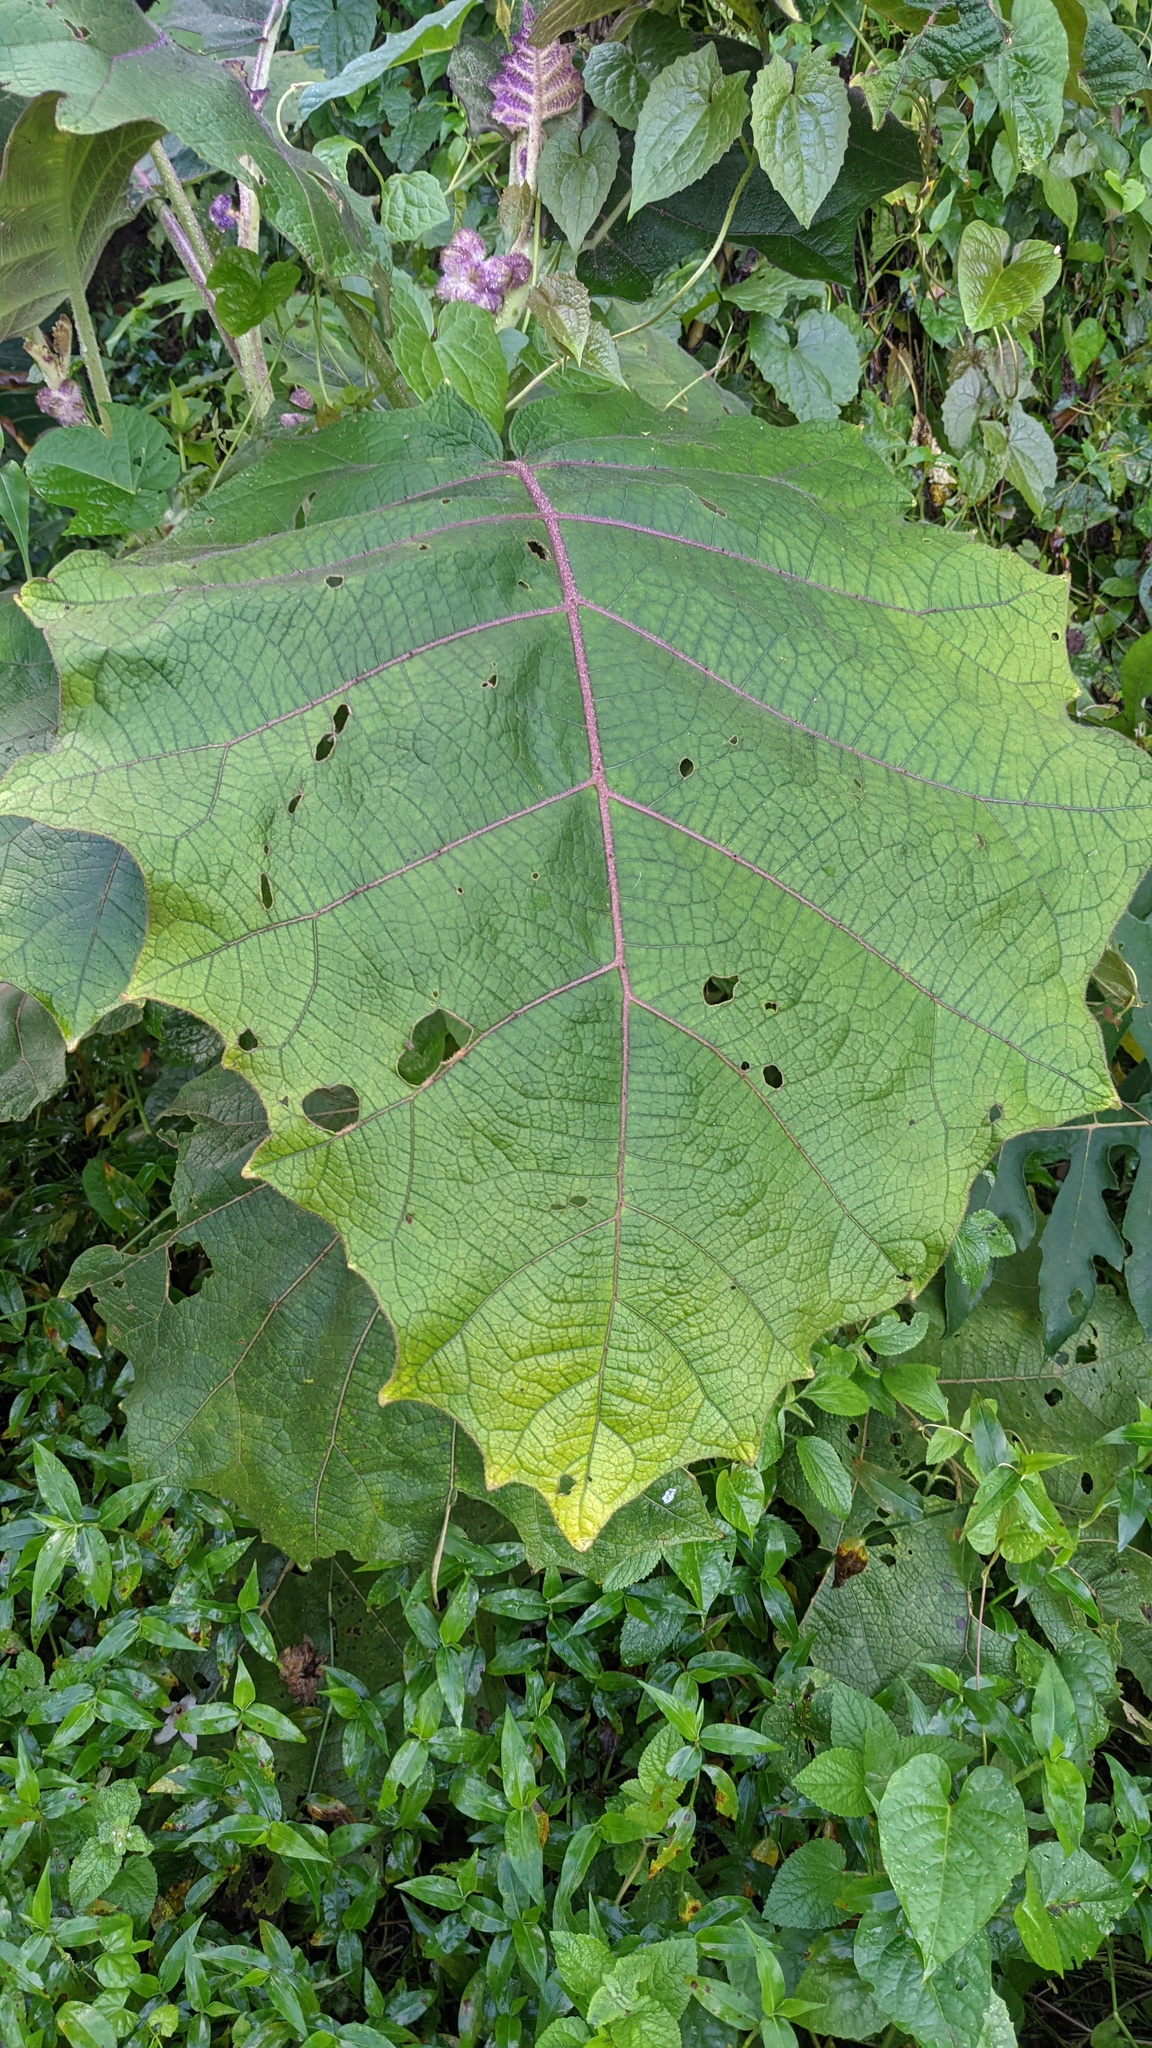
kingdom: Plantae
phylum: Tracheophyta
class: Magnoliopsida
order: Solanales
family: Solanaceae
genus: Solanum
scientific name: Solanum quitoense
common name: Quito-orange
